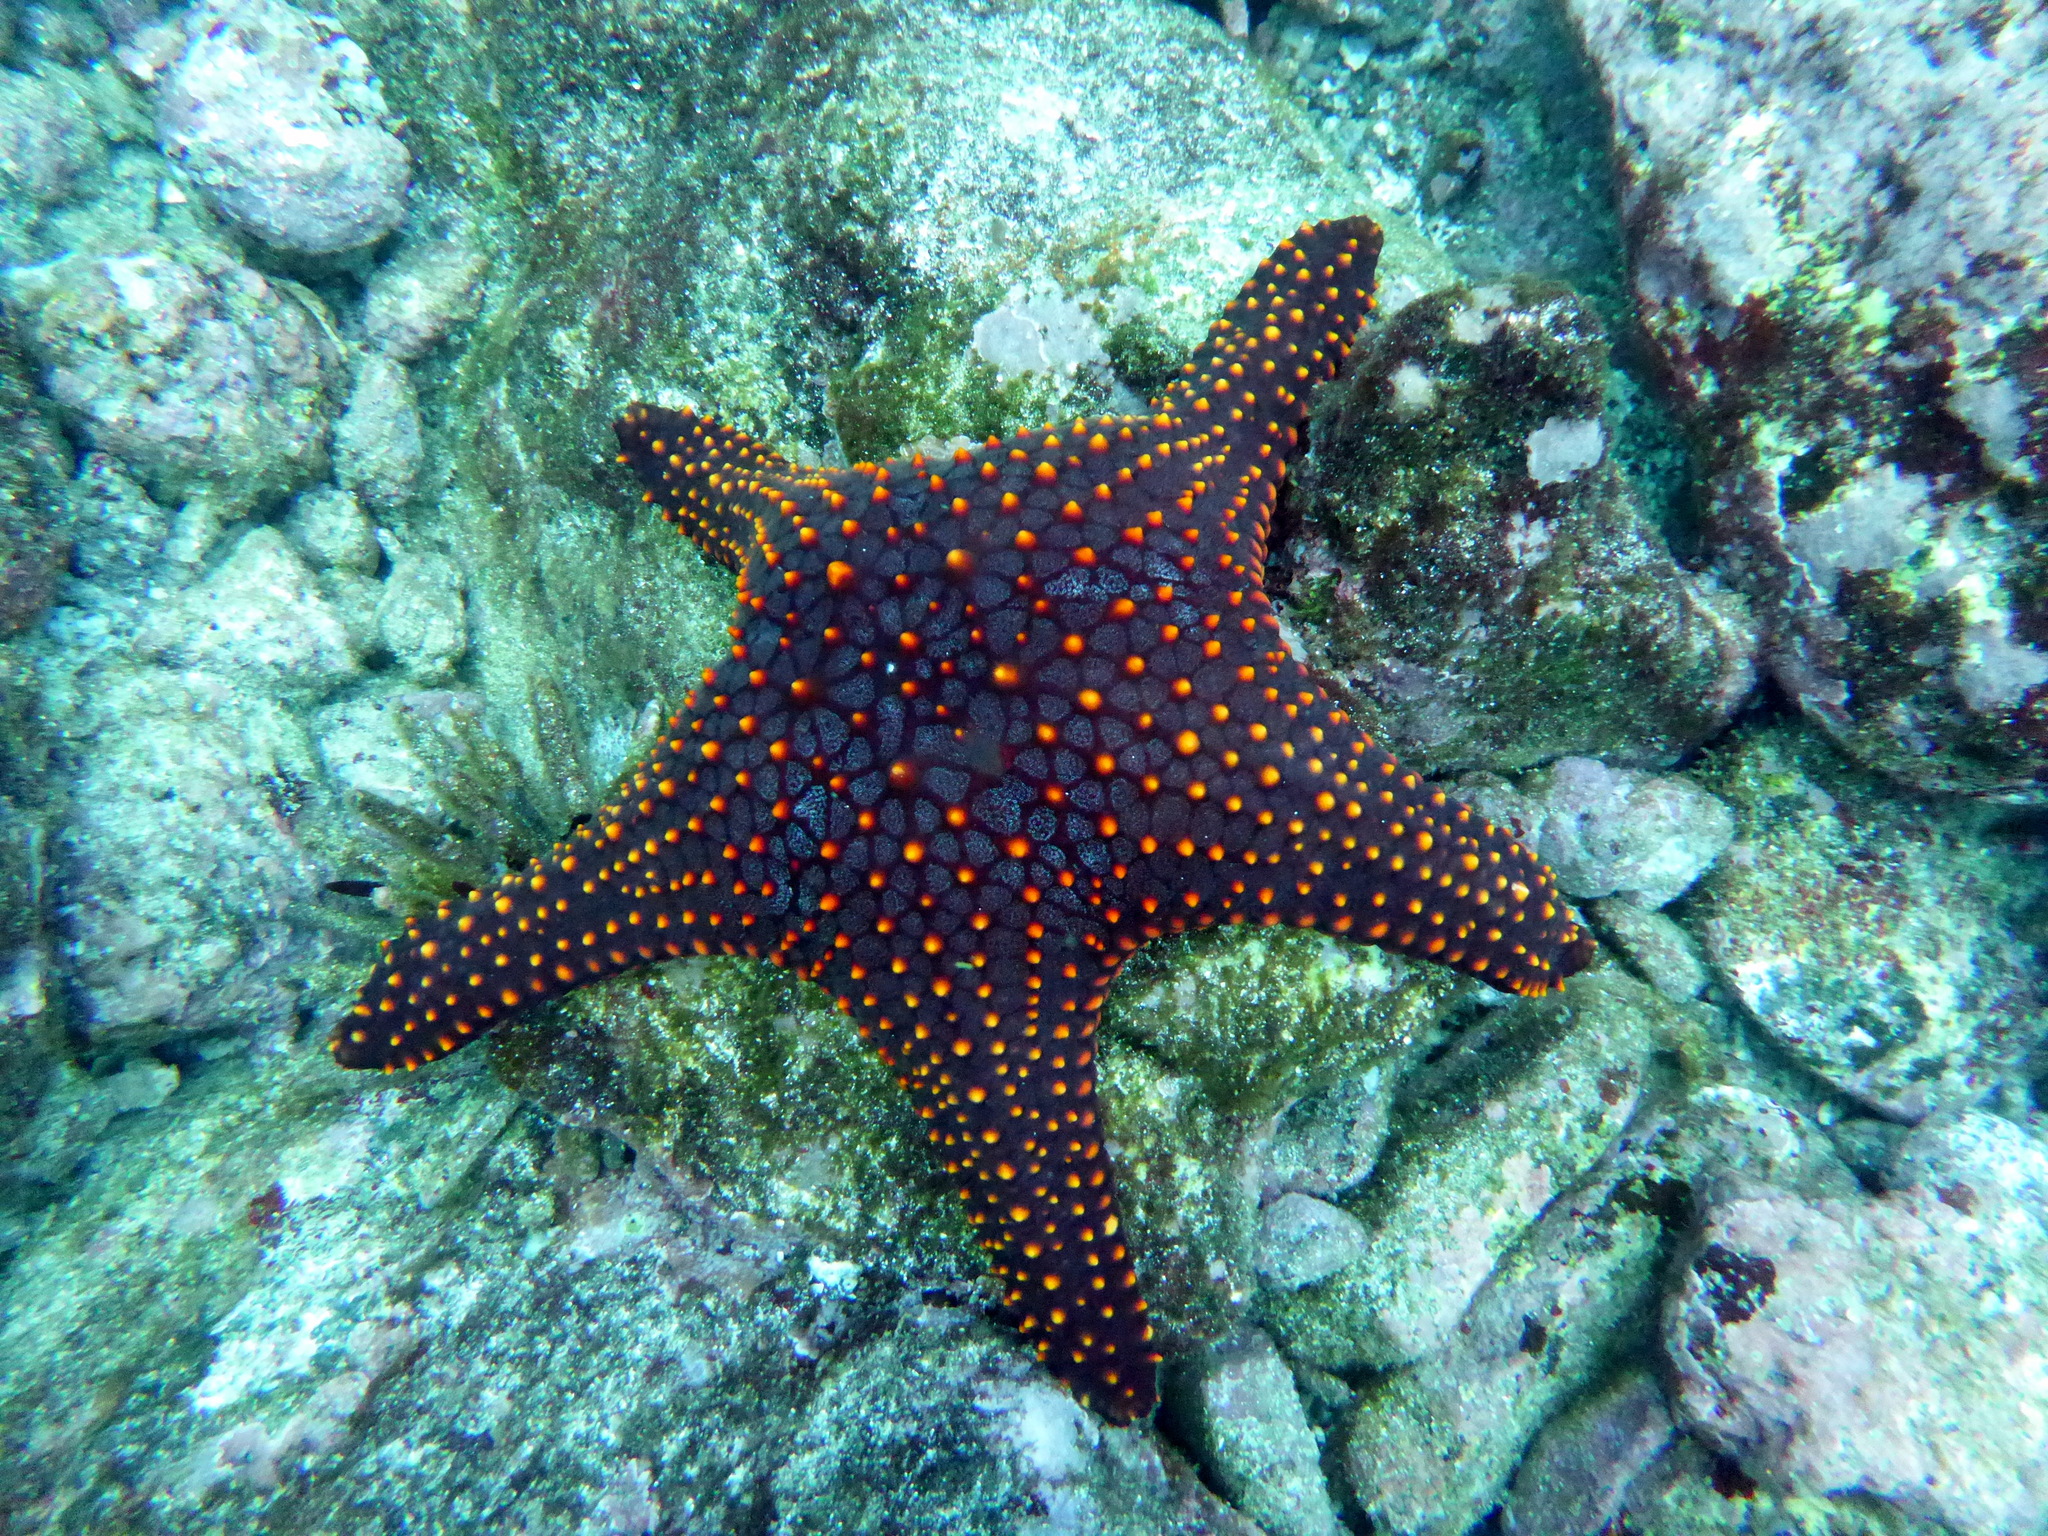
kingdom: Animalia
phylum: Echinodermata
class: Asteroidea
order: Valvatida
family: Oreasteridae
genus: Pentaceraster
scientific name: Pentaceraster cumingi
